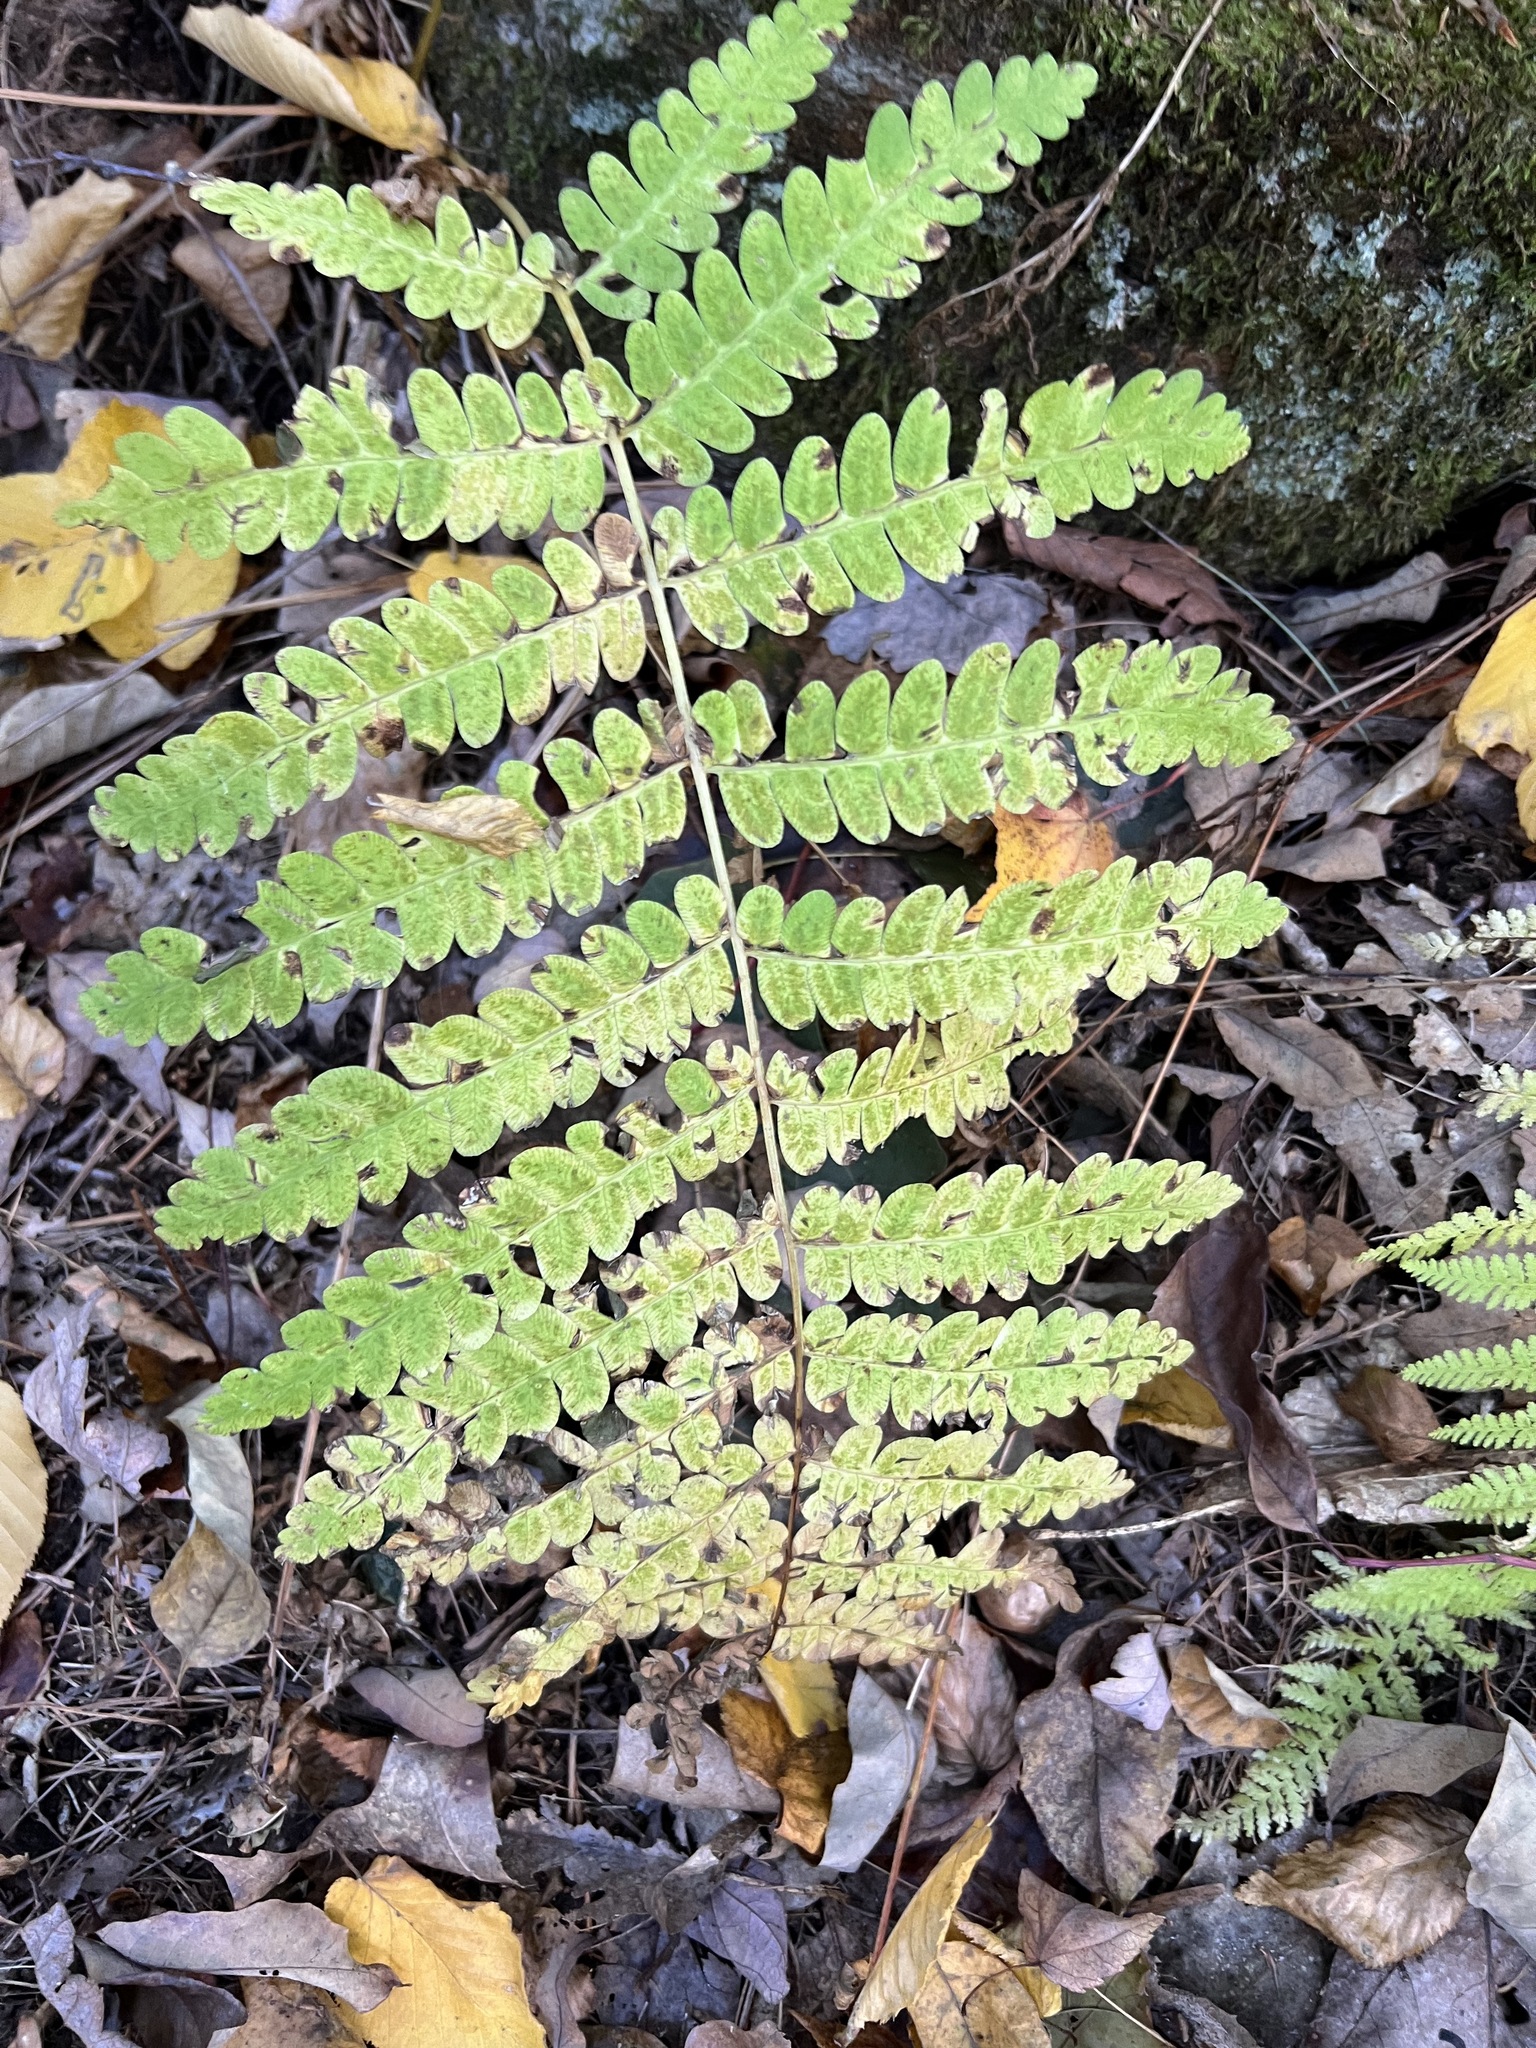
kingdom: Plantae
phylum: Tracheophyta
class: Polypodiopsida
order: Osmundales
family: Osmundaceae
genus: Claytosmunda
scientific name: Claytosmunda claytoniana
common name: Clayton's fern
